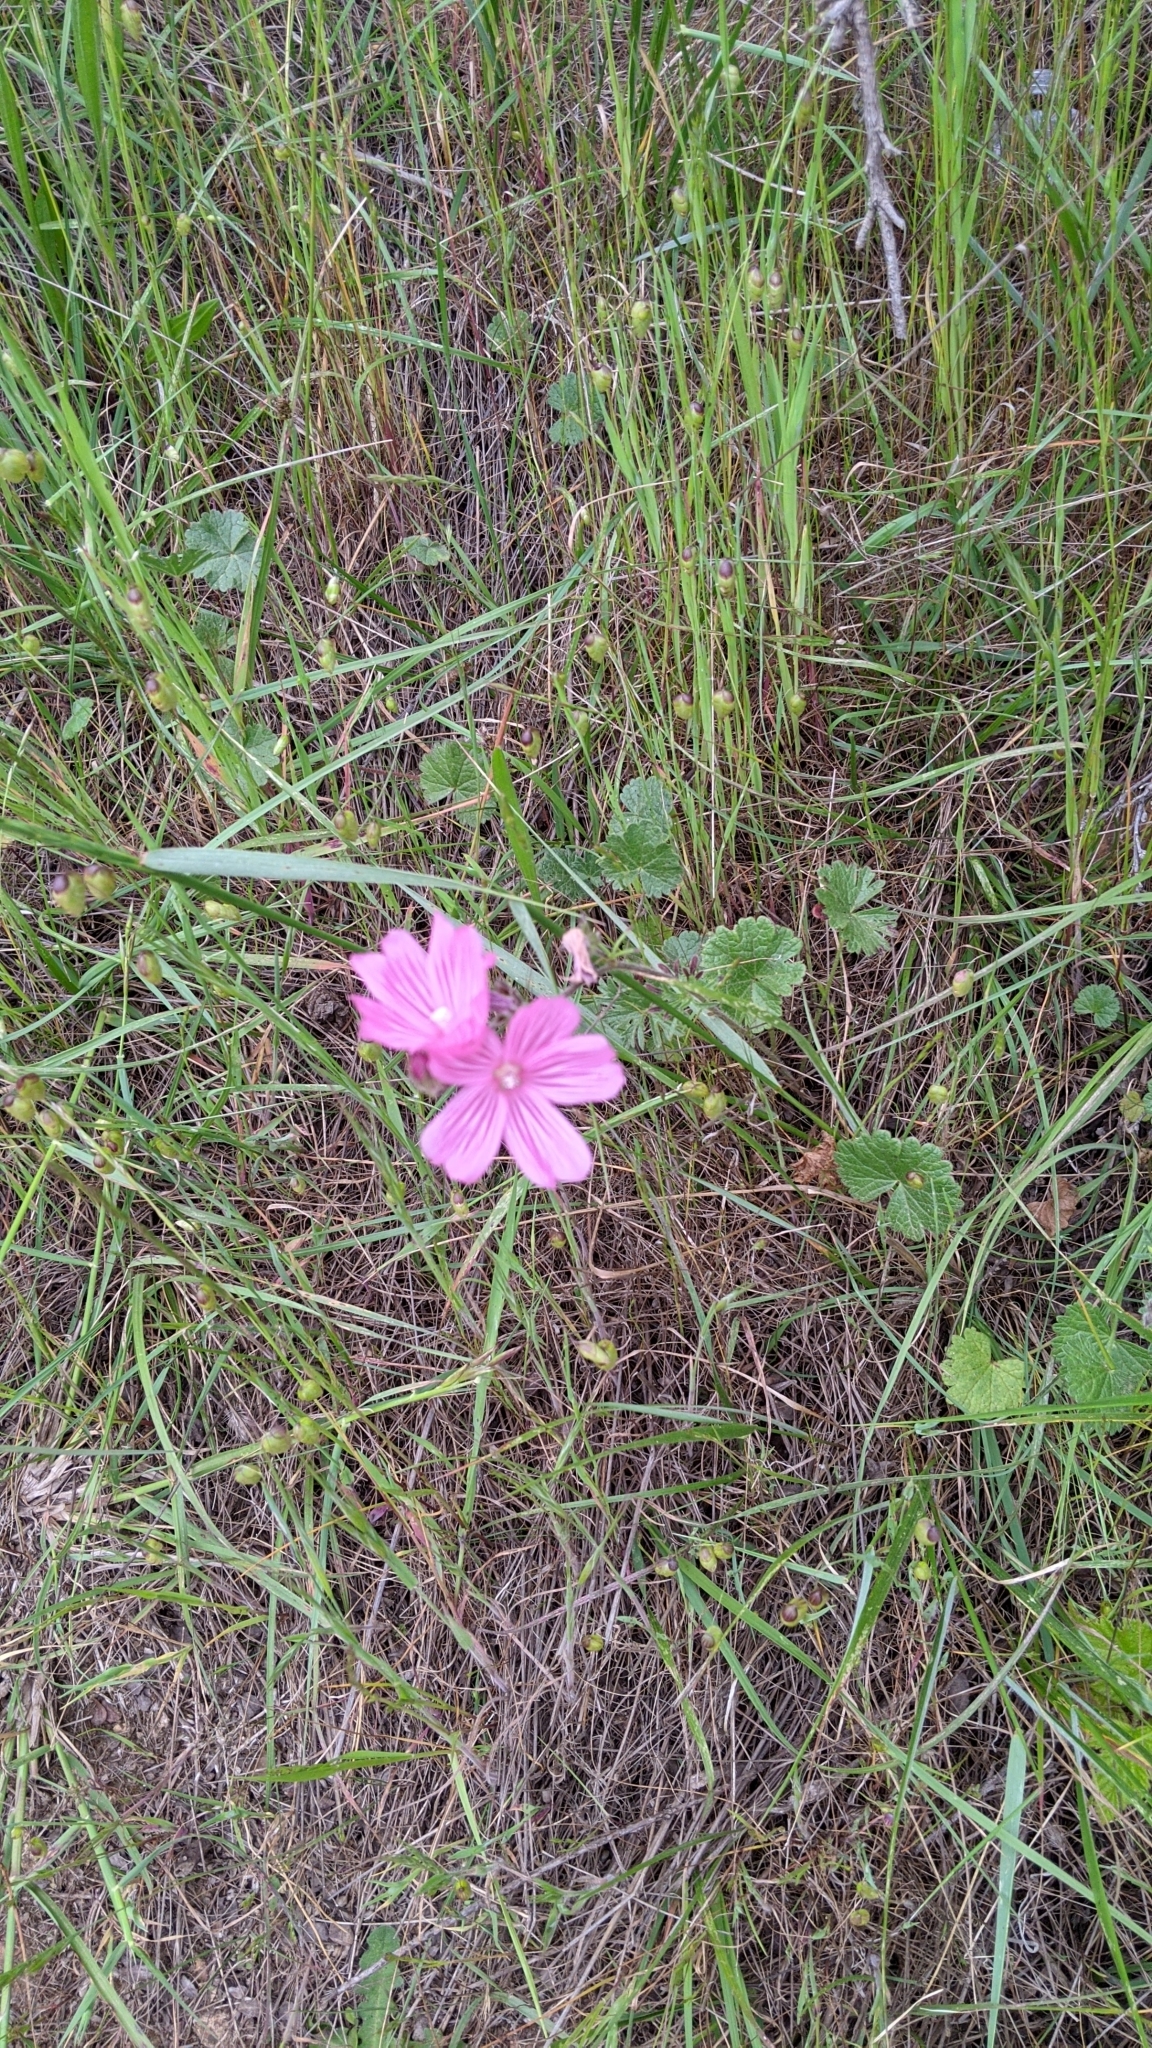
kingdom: Plantae
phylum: Tracheophyta
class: Magnoliopsida
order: Malvales
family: Malvaceae
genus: Sidalcea
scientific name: Sidalcea malviflora
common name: Greek mallow
